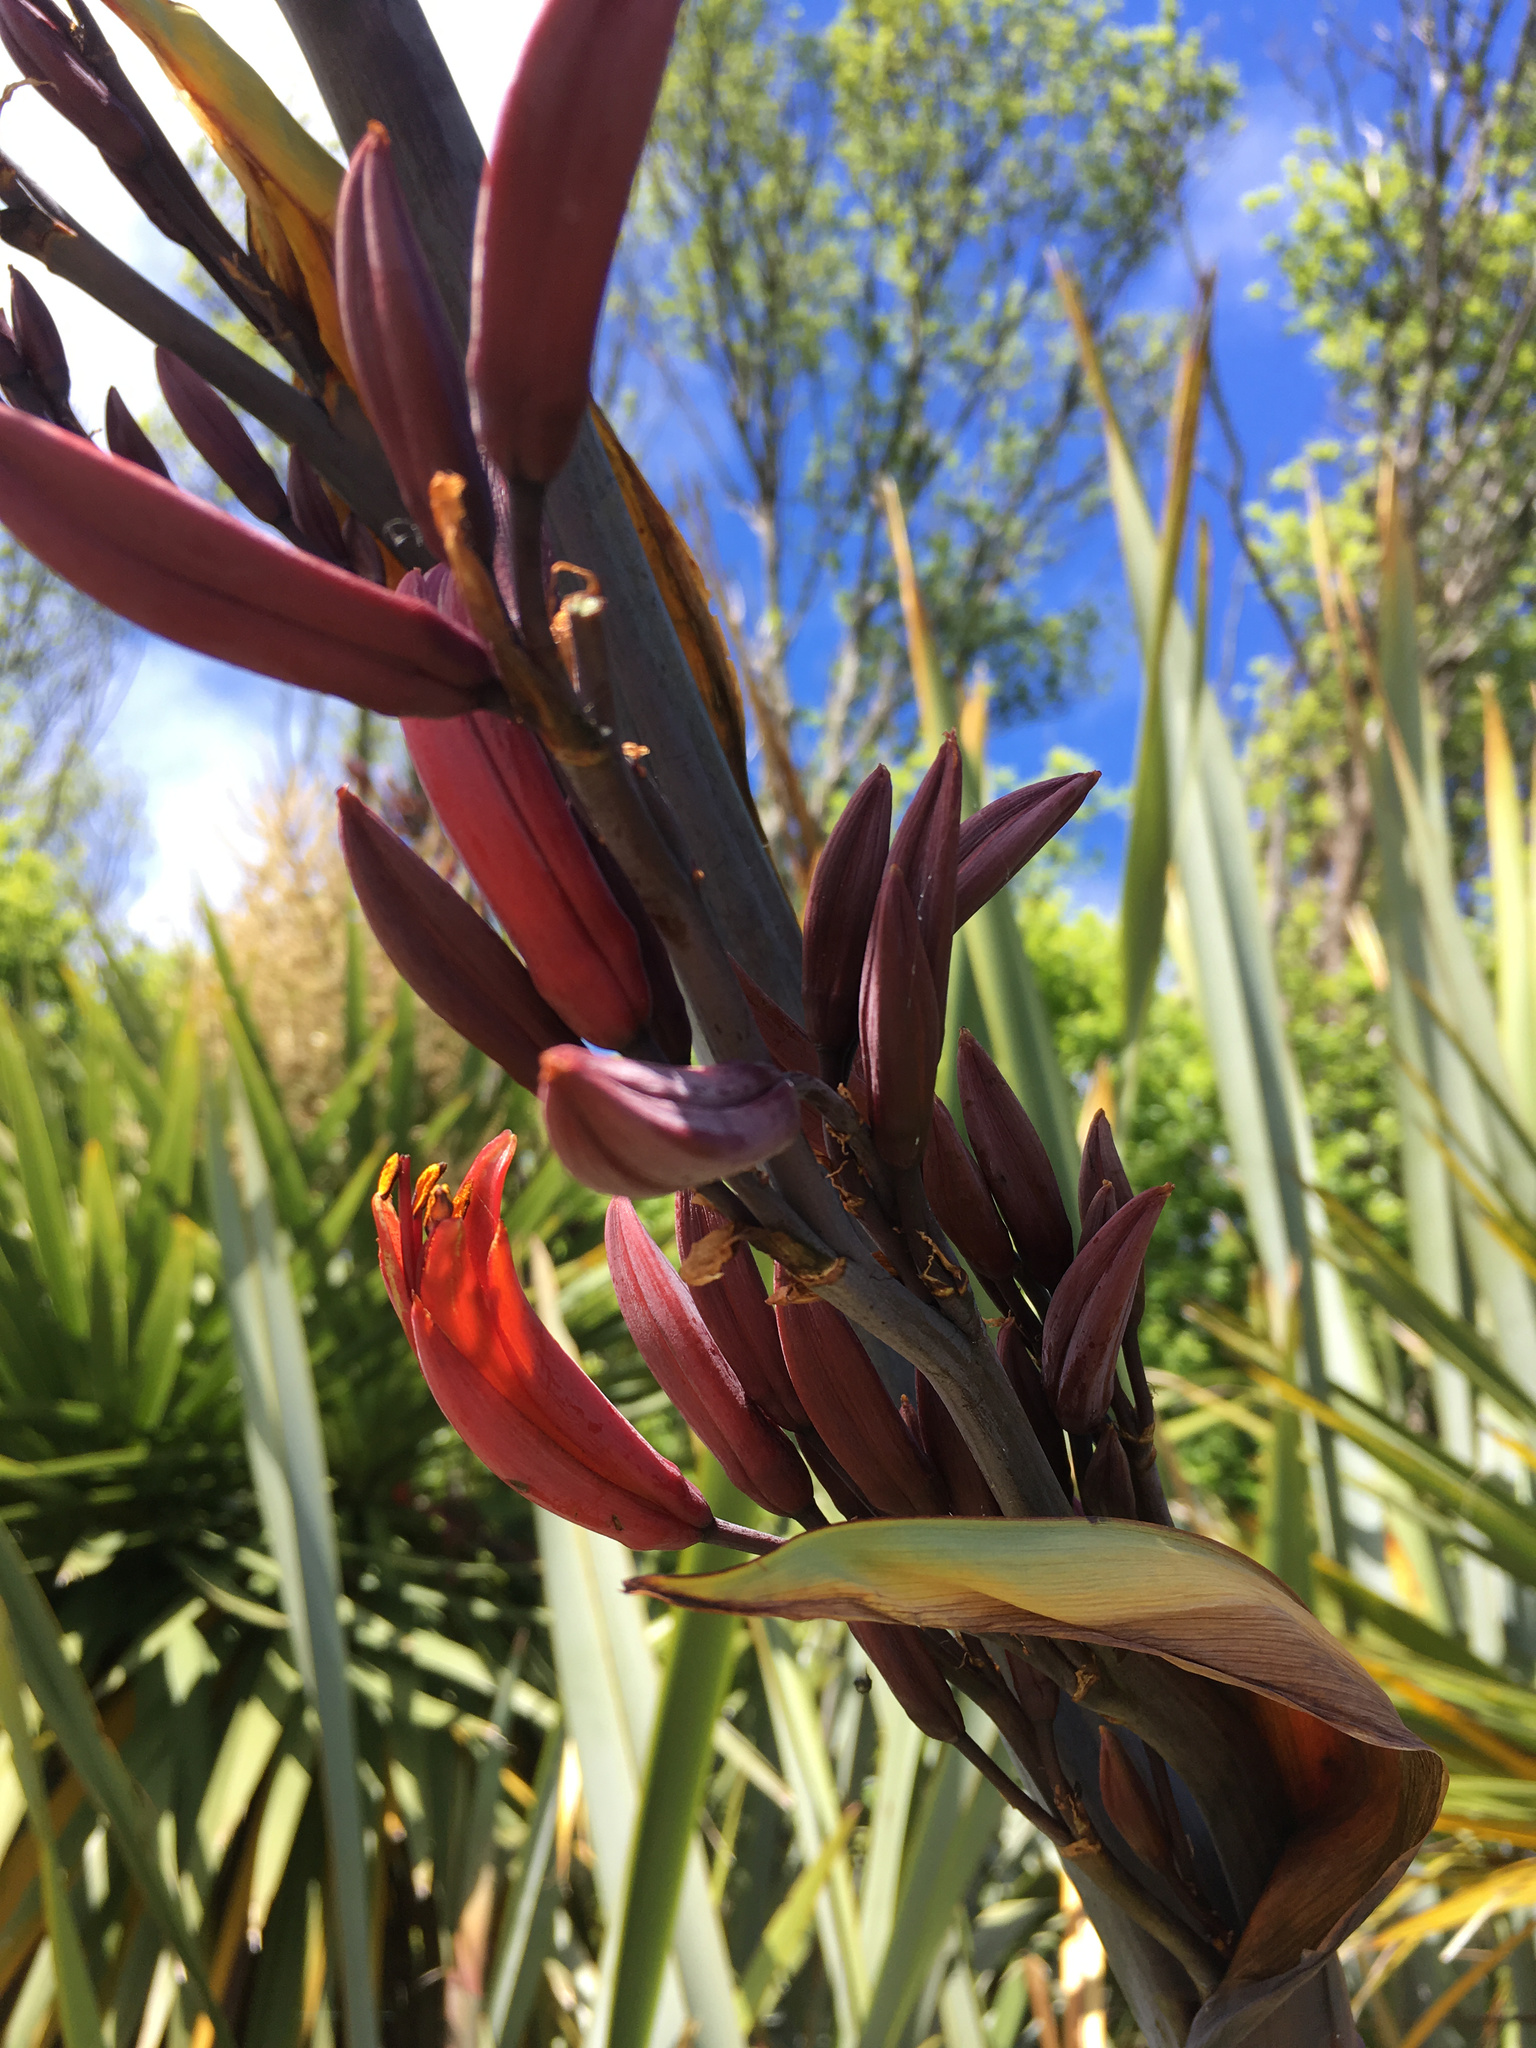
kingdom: Plantae
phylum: Tracheophyta
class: Liliopsida
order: Asparagales
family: Asphodelaceae
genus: Phormium
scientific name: Phormium tenax
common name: New zealand flax
